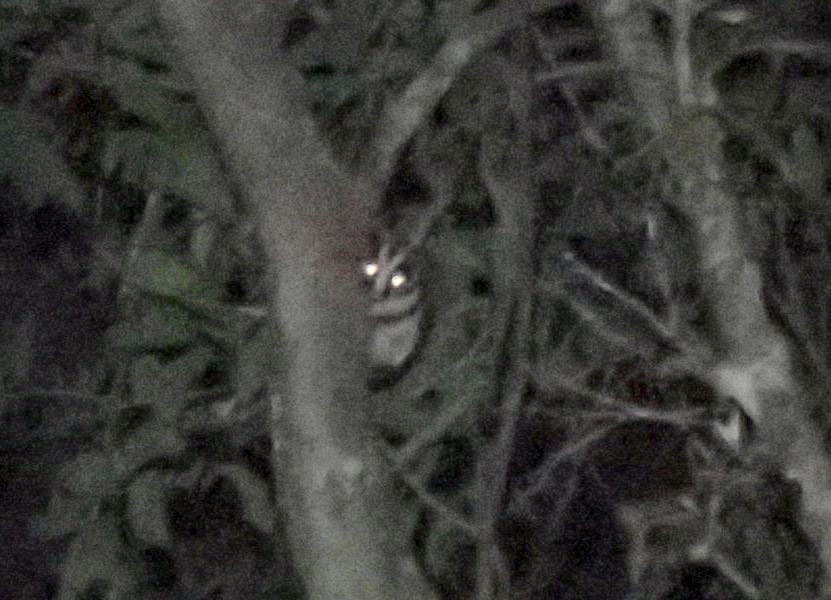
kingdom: Animalia
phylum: Chordata
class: Mammalia
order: Diprotodontia
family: Petauridae
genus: Dactylopsila
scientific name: Dactylopsila trivirgata
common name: Striped possum
